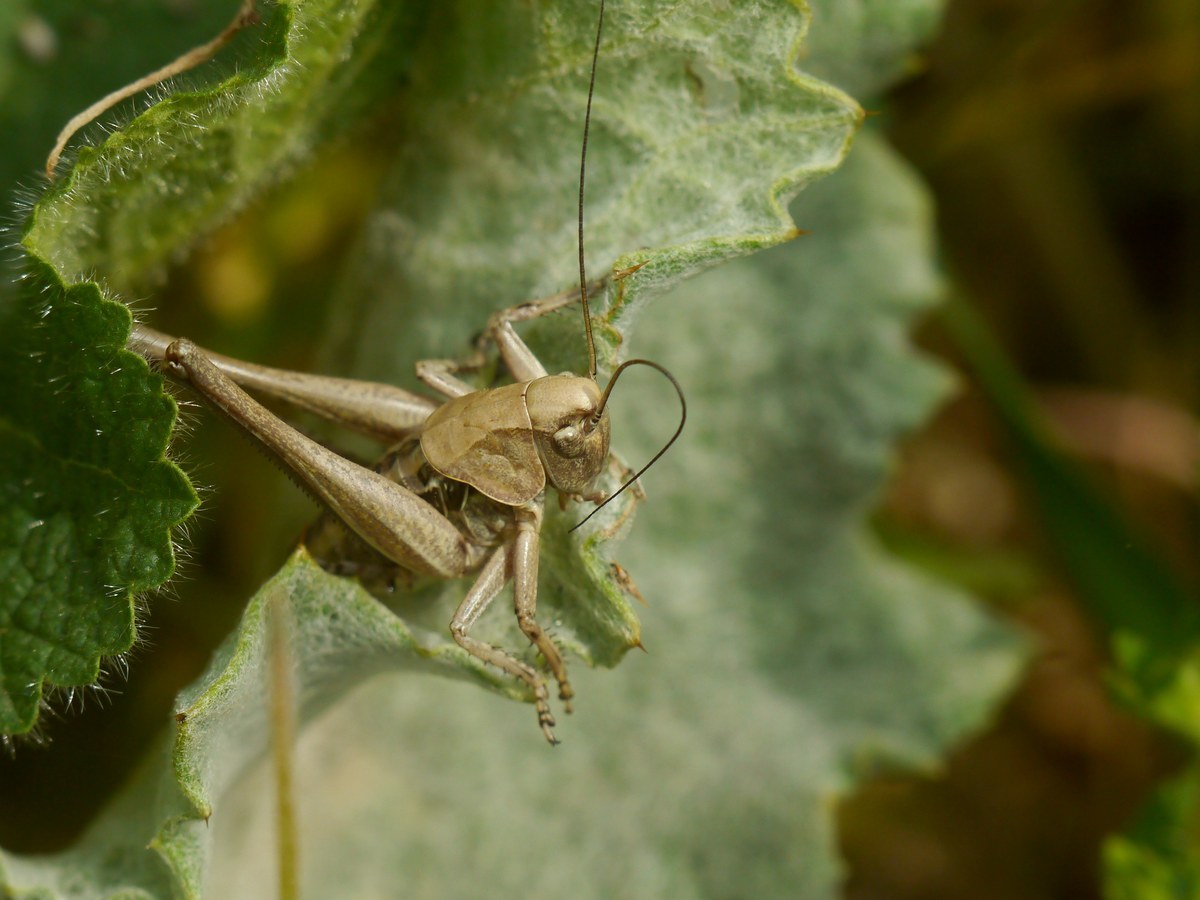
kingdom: Animalia
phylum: Arthropoda
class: Insecta
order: Orthoptera
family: Tettigoniidae
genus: Decticus
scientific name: Decticus verrucivorus
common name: Wart-biter
